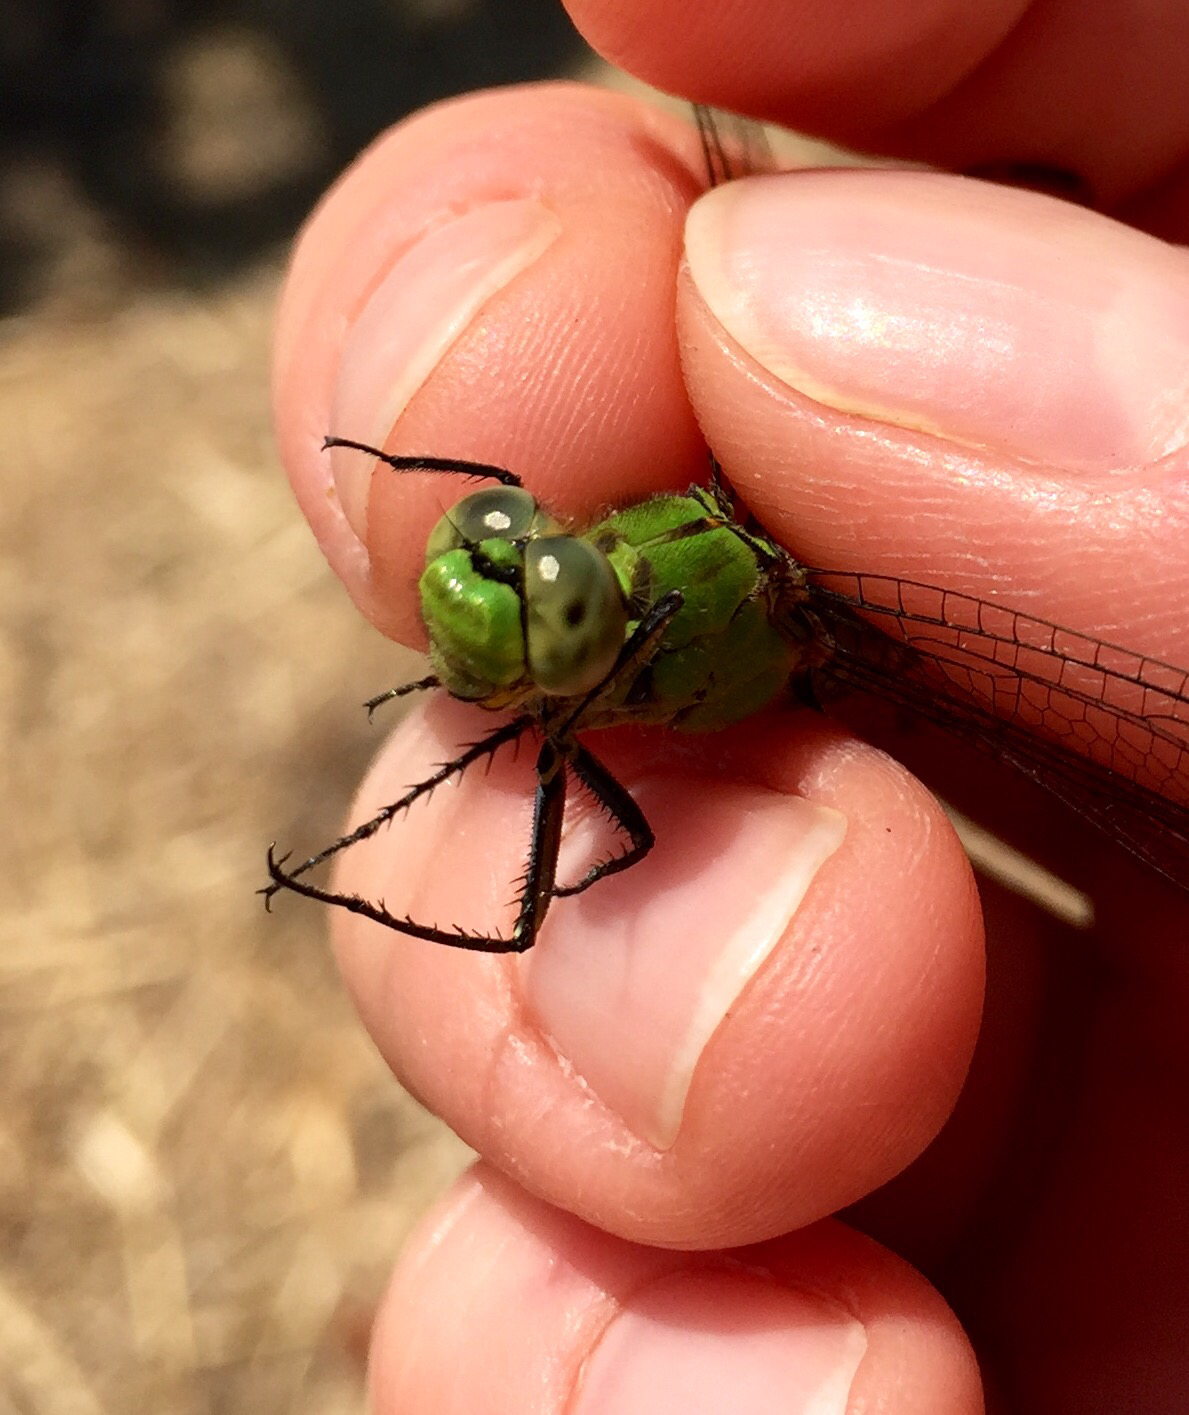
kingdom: Animalia
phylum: Arthropoda
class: Insecta
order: Odonata
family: Libellulidae
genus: Erythemis
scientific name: Erythemis collocata
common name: Western pondhawk
